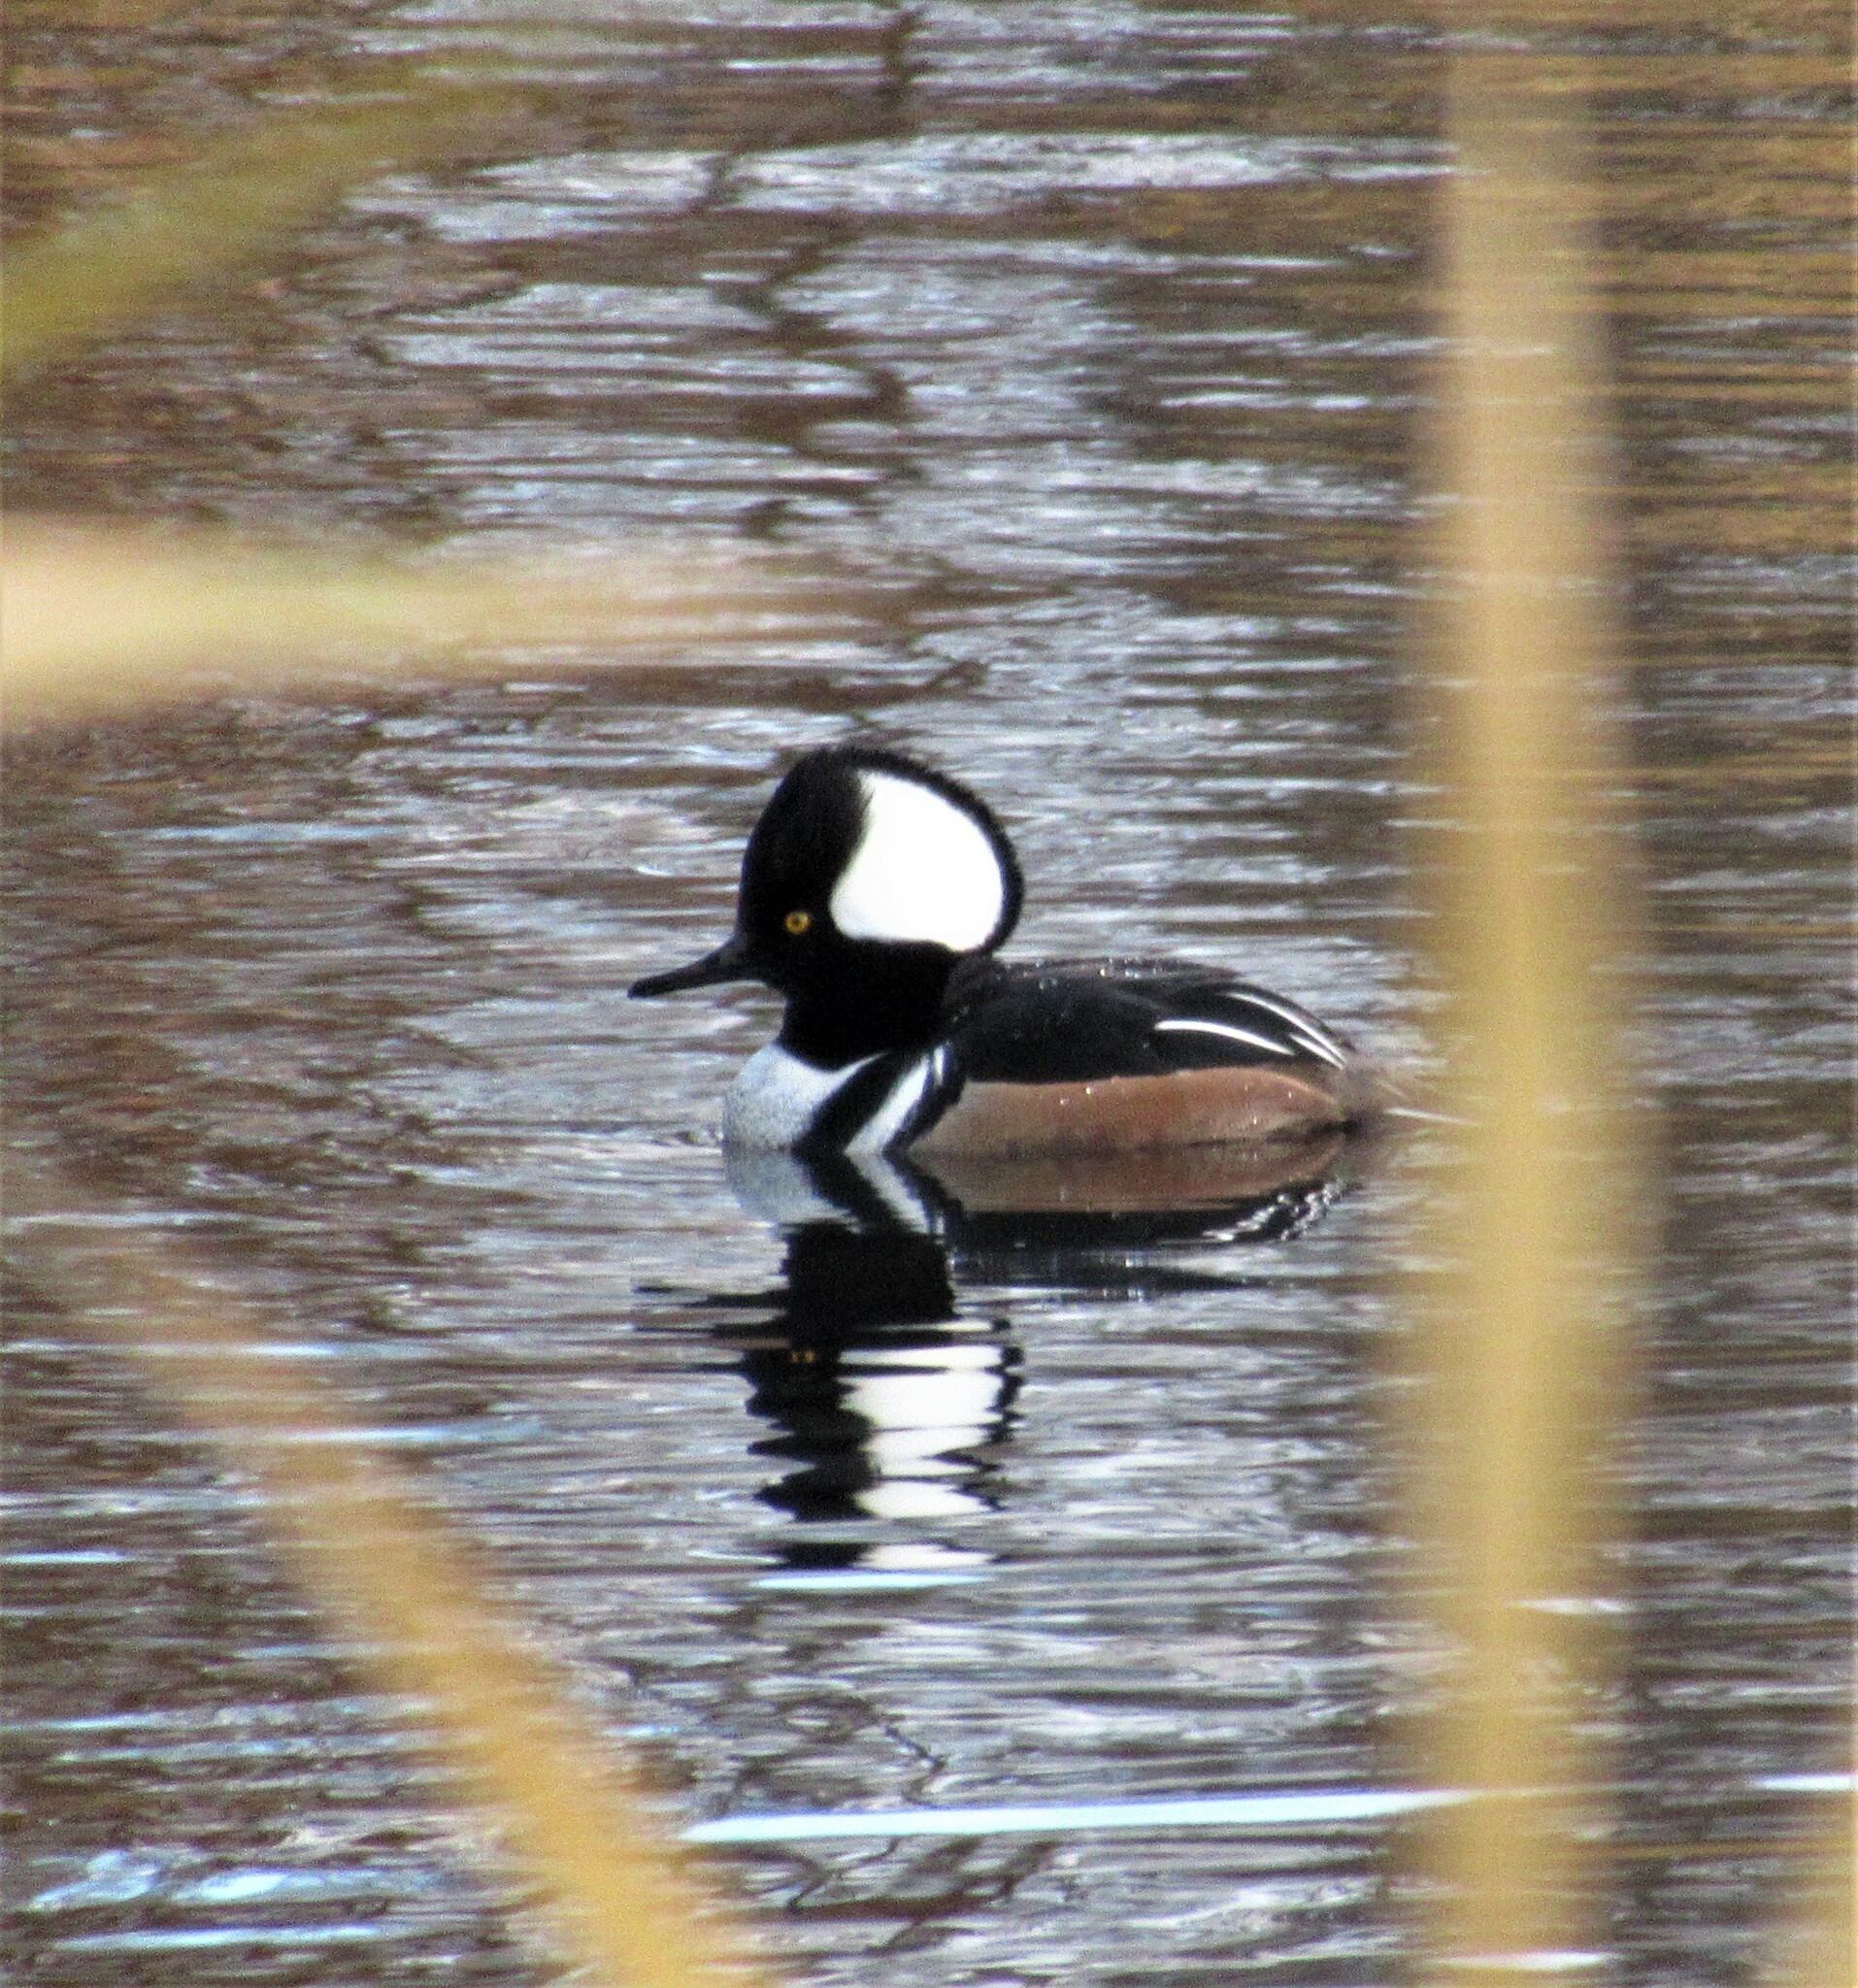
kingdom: Animalia
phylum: Chordata
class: Aves
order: Anseriformes
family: Anatidae
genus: Lophodytes
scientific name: Lophodytes cucullatus
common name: Hooded merganser
